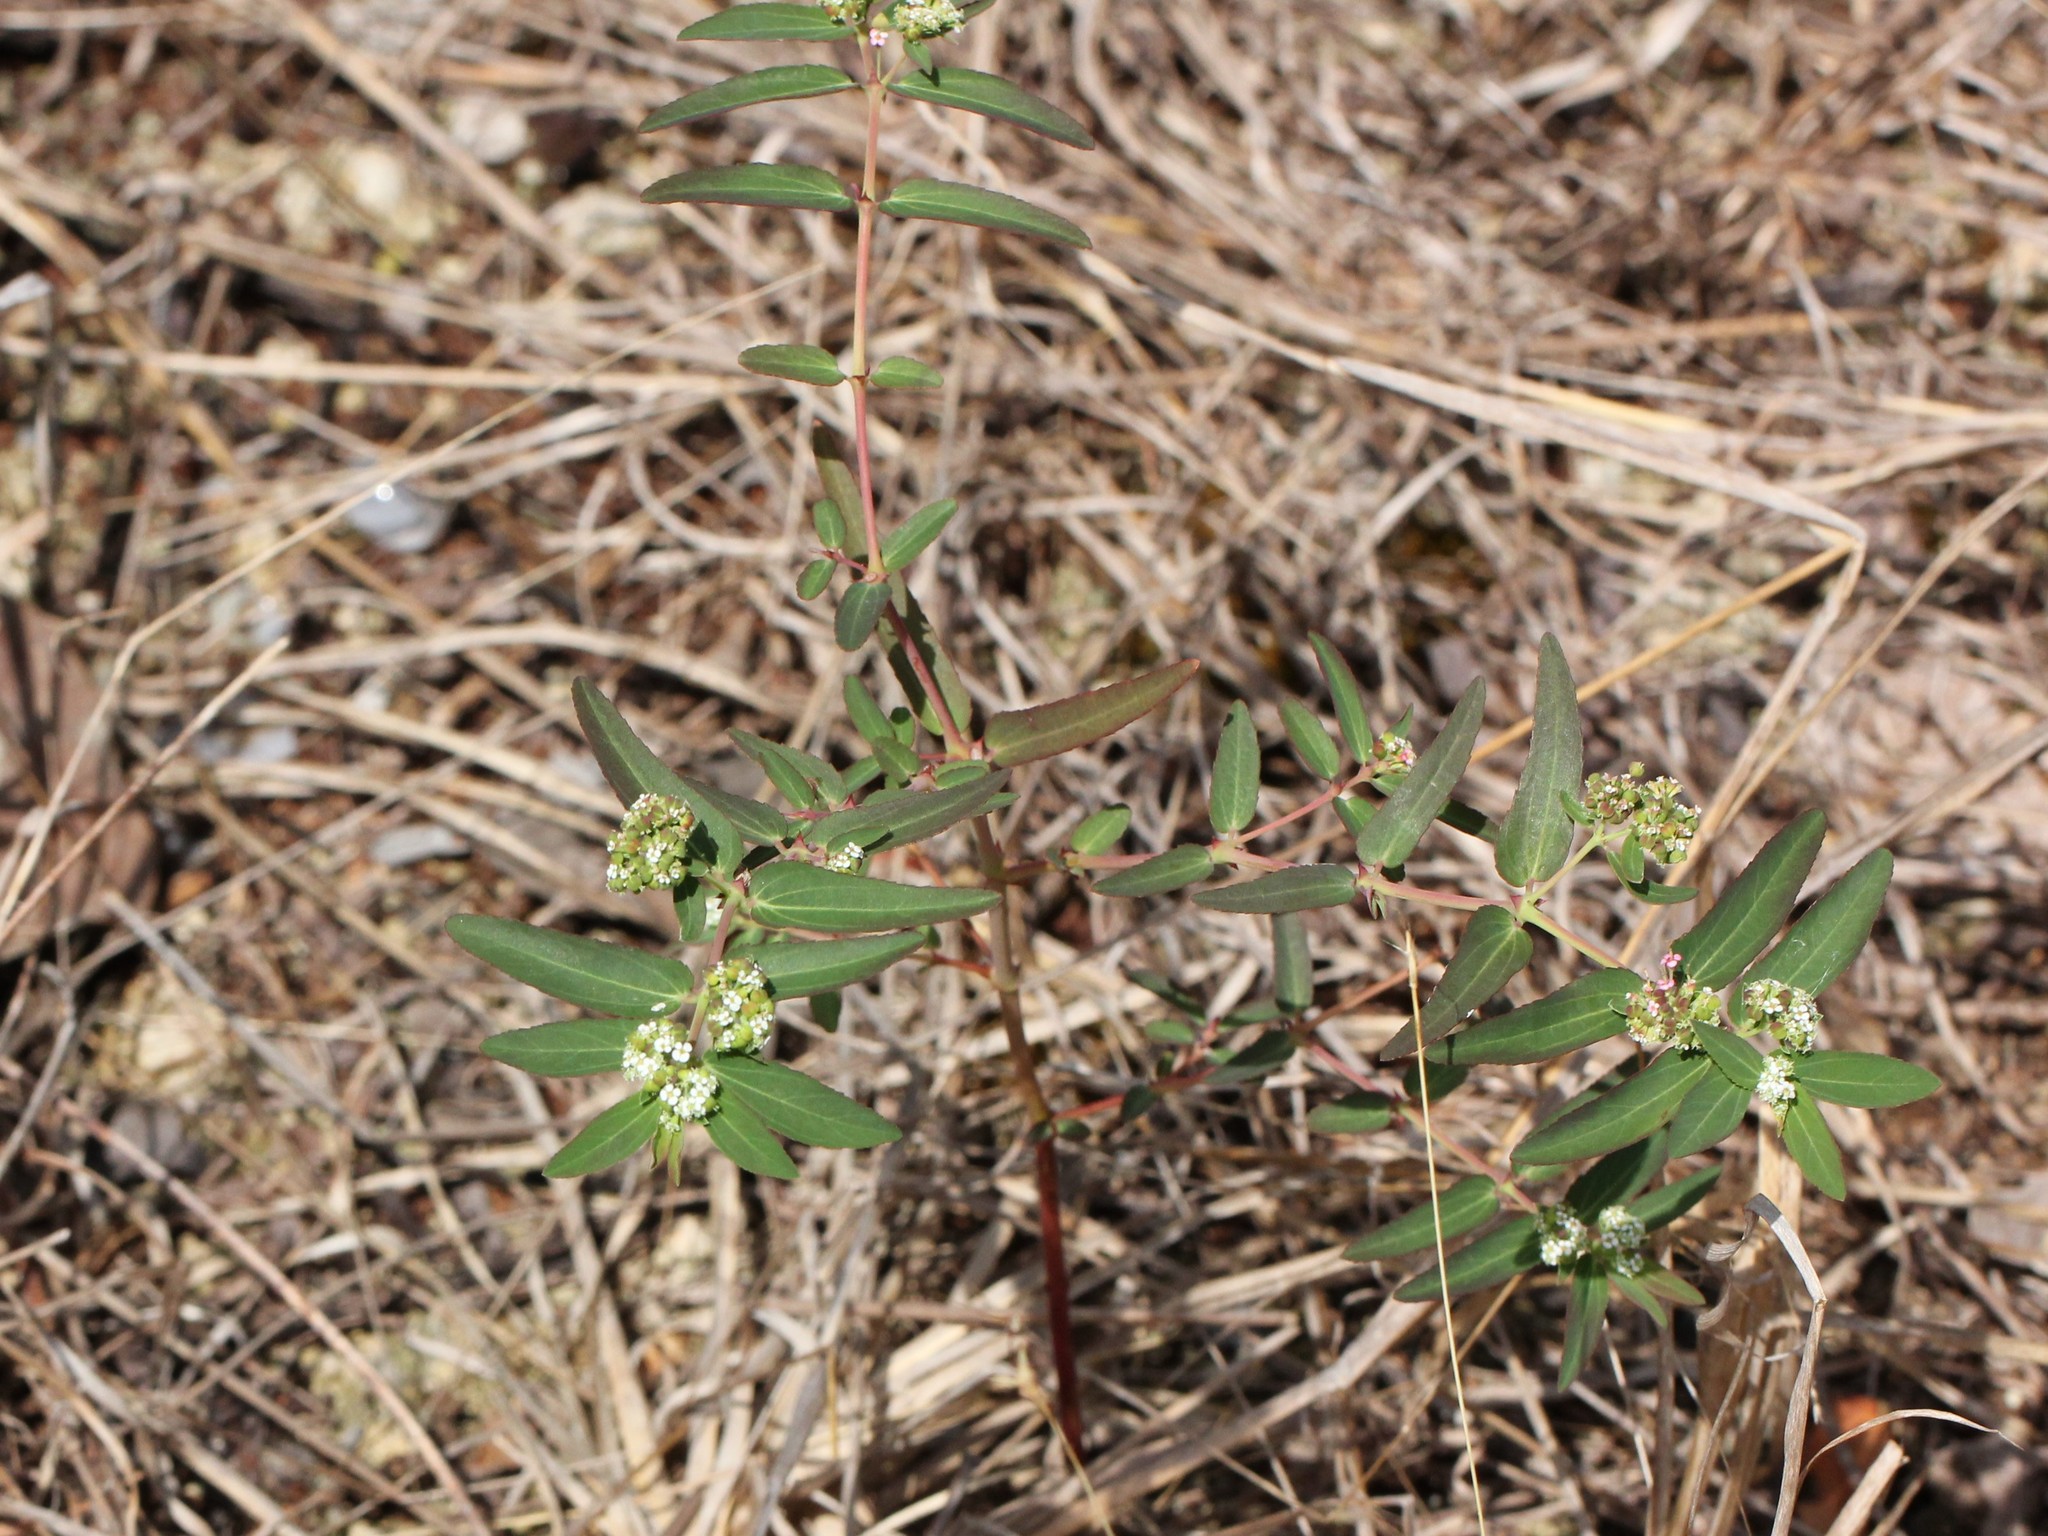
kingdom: Plantae
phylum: Tracheophyta
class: Magnoliopsida
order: Malpighiales
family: Euphorbiaceae
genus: Euphorbia
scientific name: Euphorbia hypericifolia
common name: Graceful sandmat
